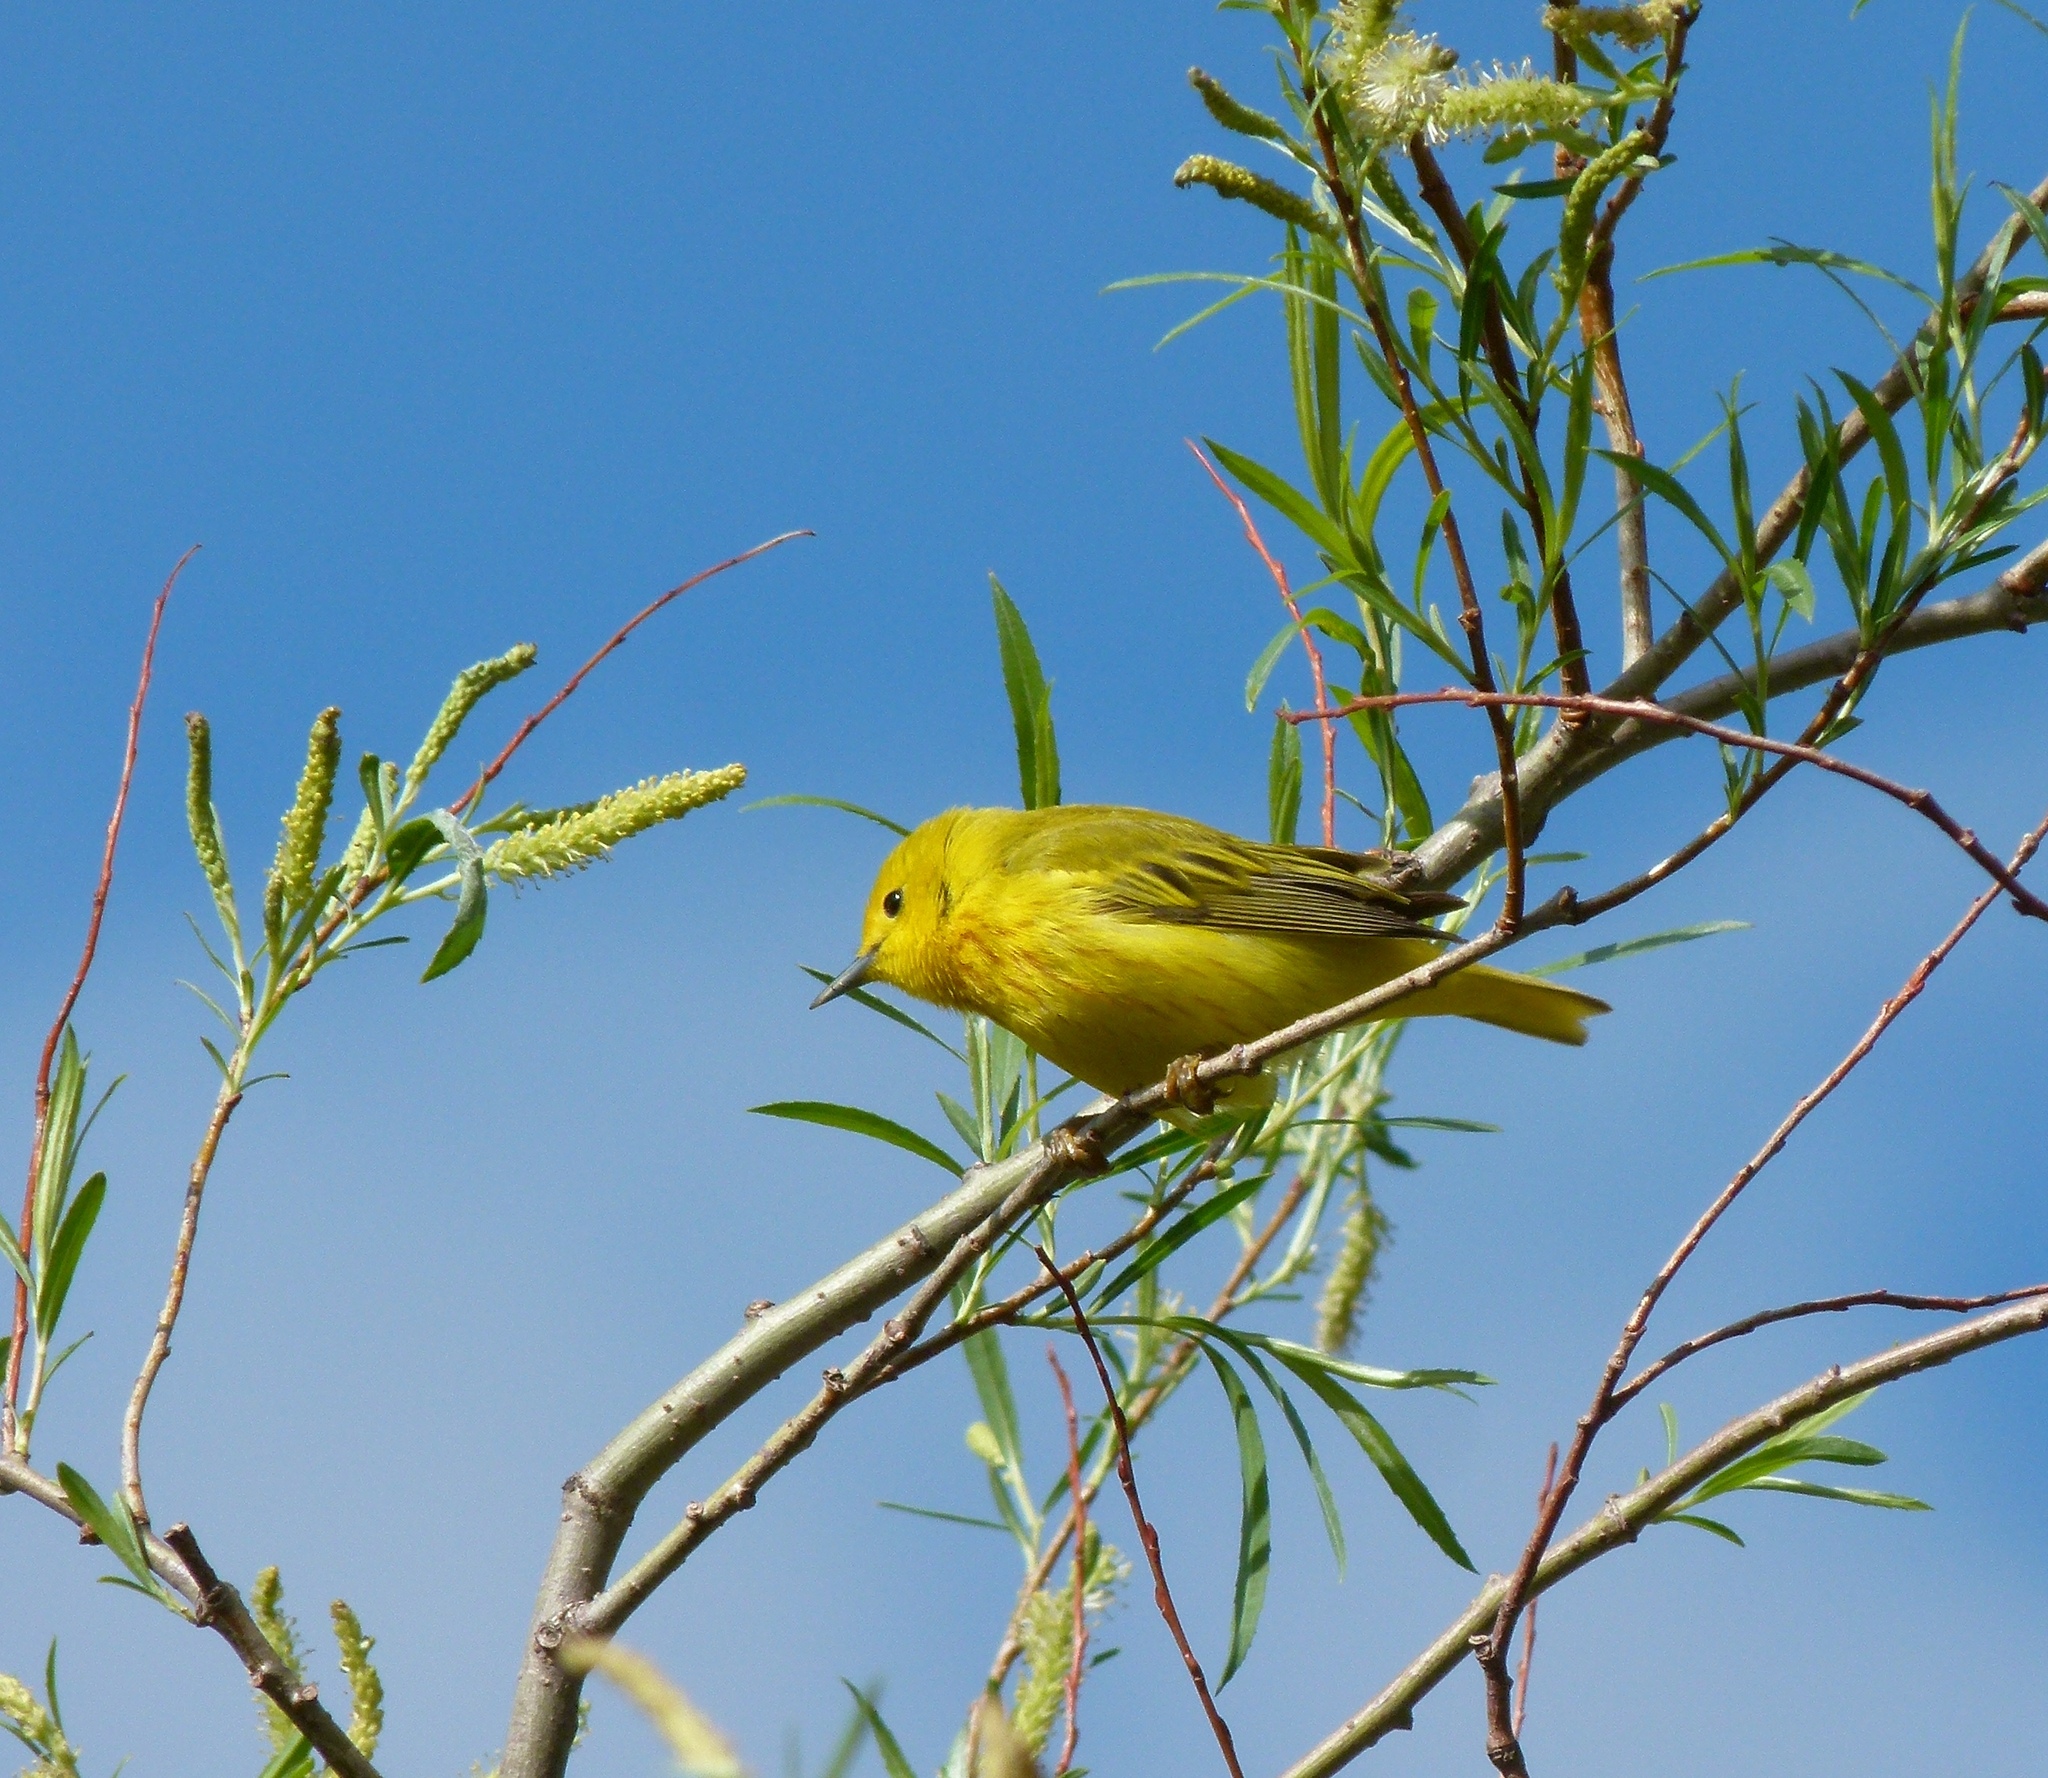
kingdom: Animalia
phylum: Chordata
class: Aves
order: Passeriformes
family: Parulidae
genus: Setophaga
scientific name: Setophaga petechia
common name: Yellow warbler
